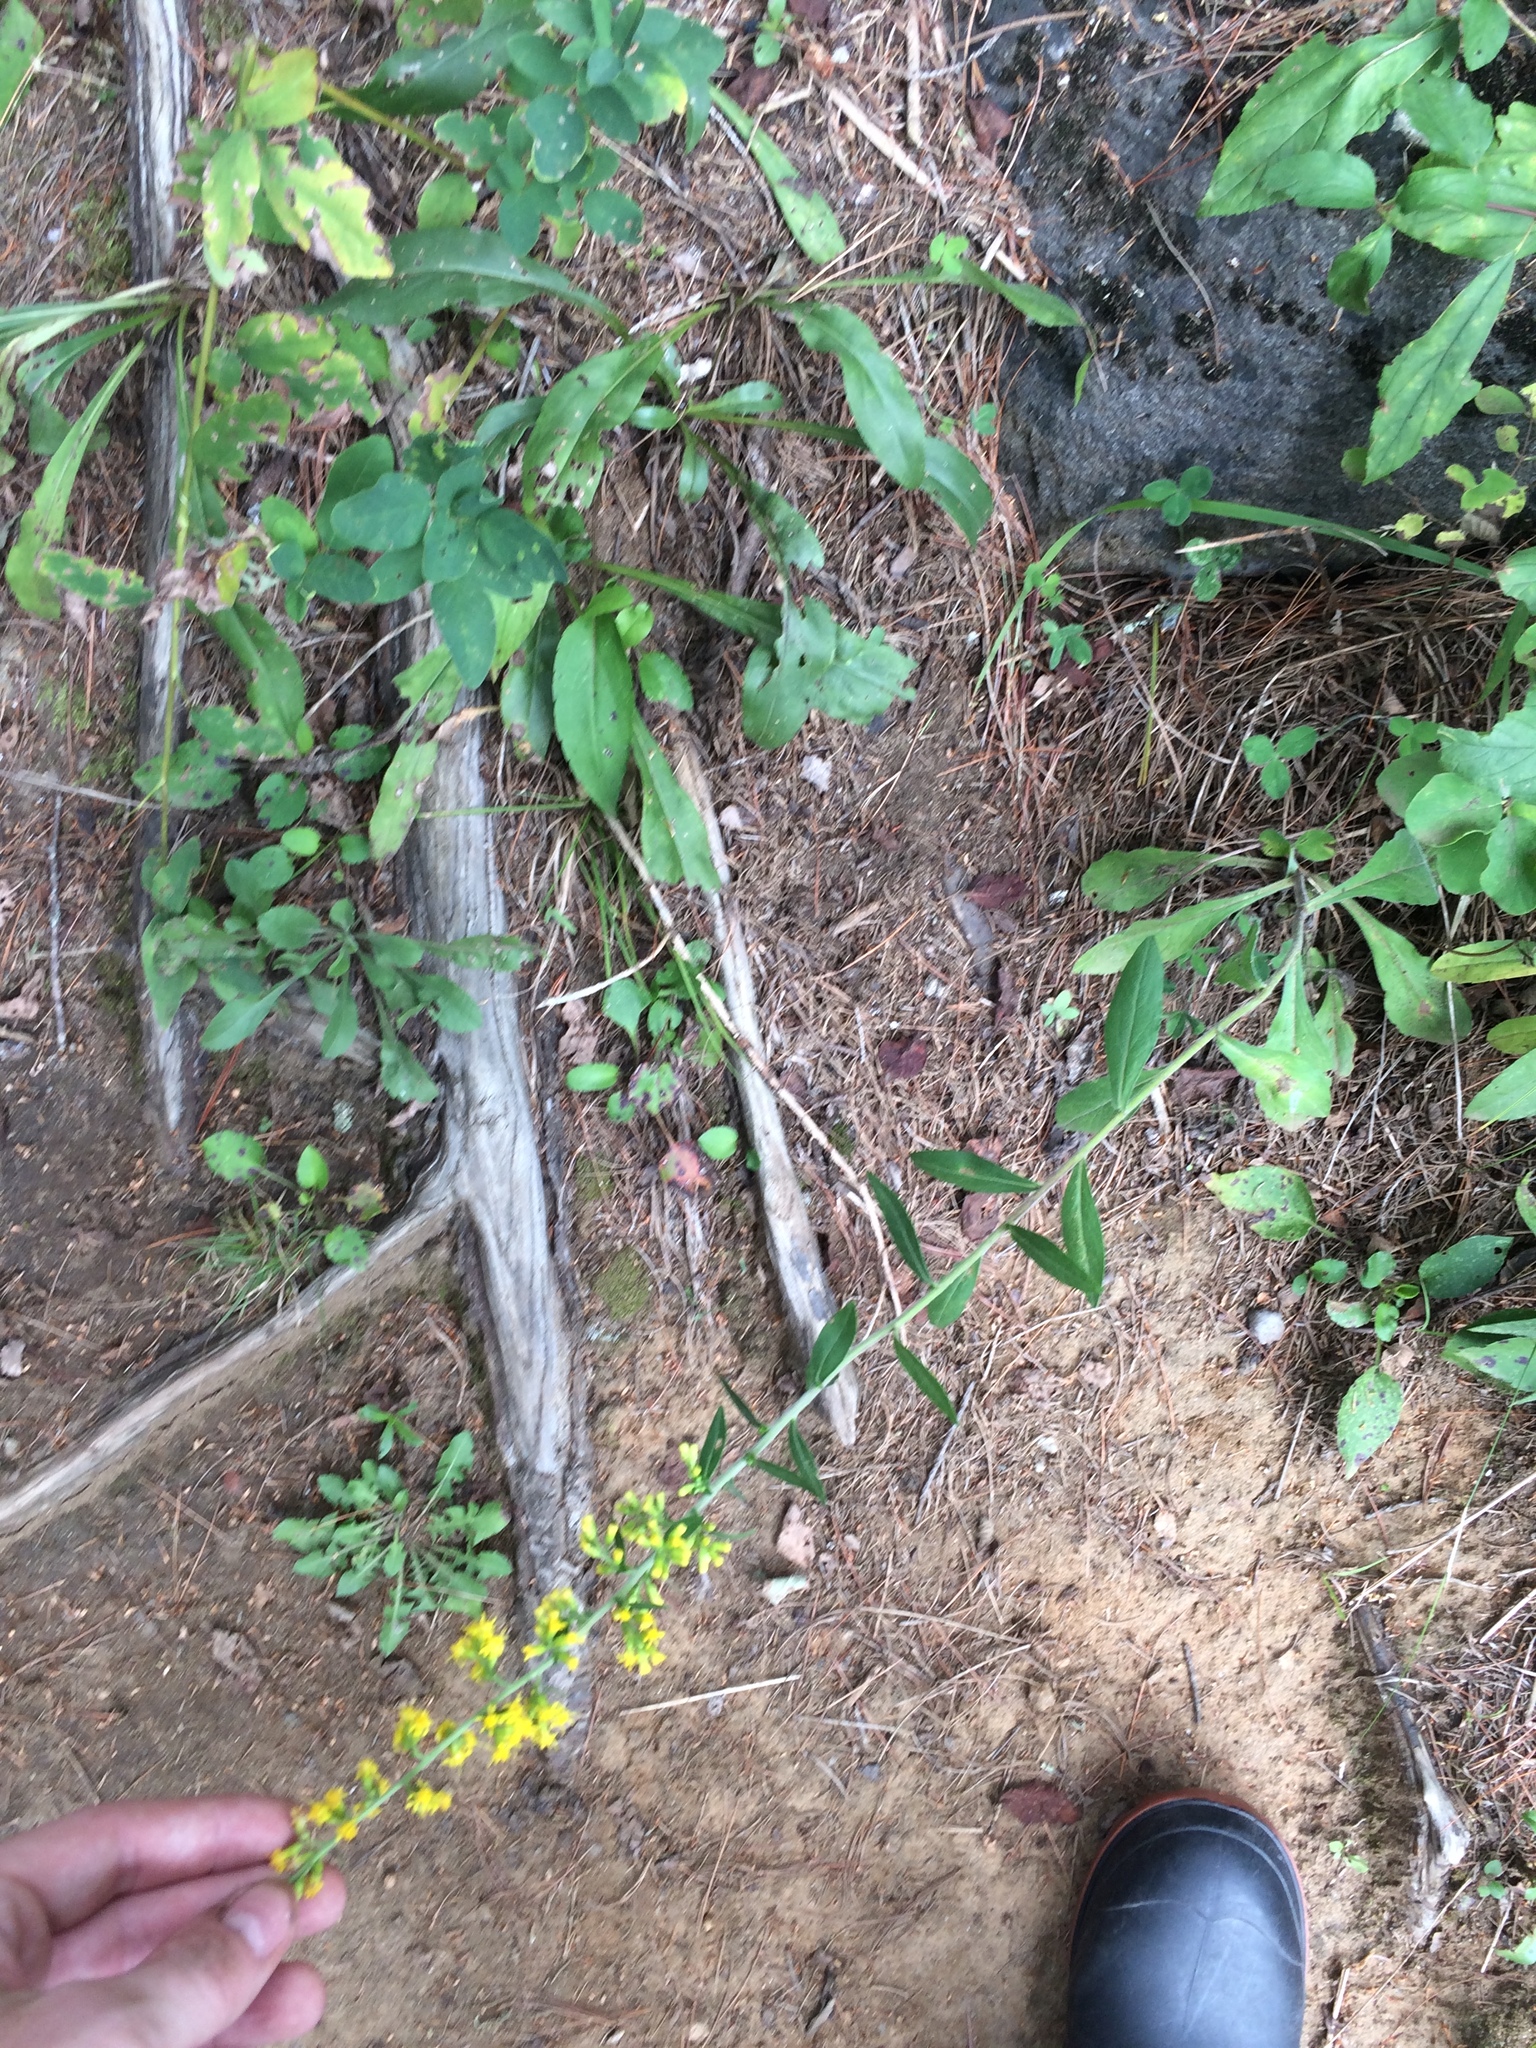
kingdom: Plantae
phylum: Tracheophyta
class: Magnoliopsida
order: Asterales
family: Asteraceae
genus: Solidago
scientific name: Solidago hispida
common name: Hairy goldenrod
